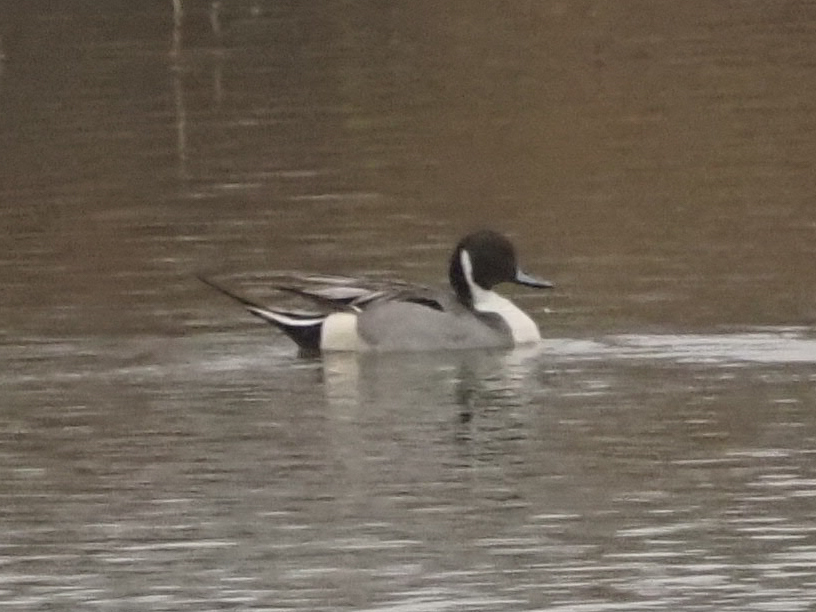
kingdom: Animalia
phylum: Chordata
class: Aves
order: Anseriformes
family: Anatidae
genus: Anas
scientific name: Anas acuta
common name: Northern pintail
